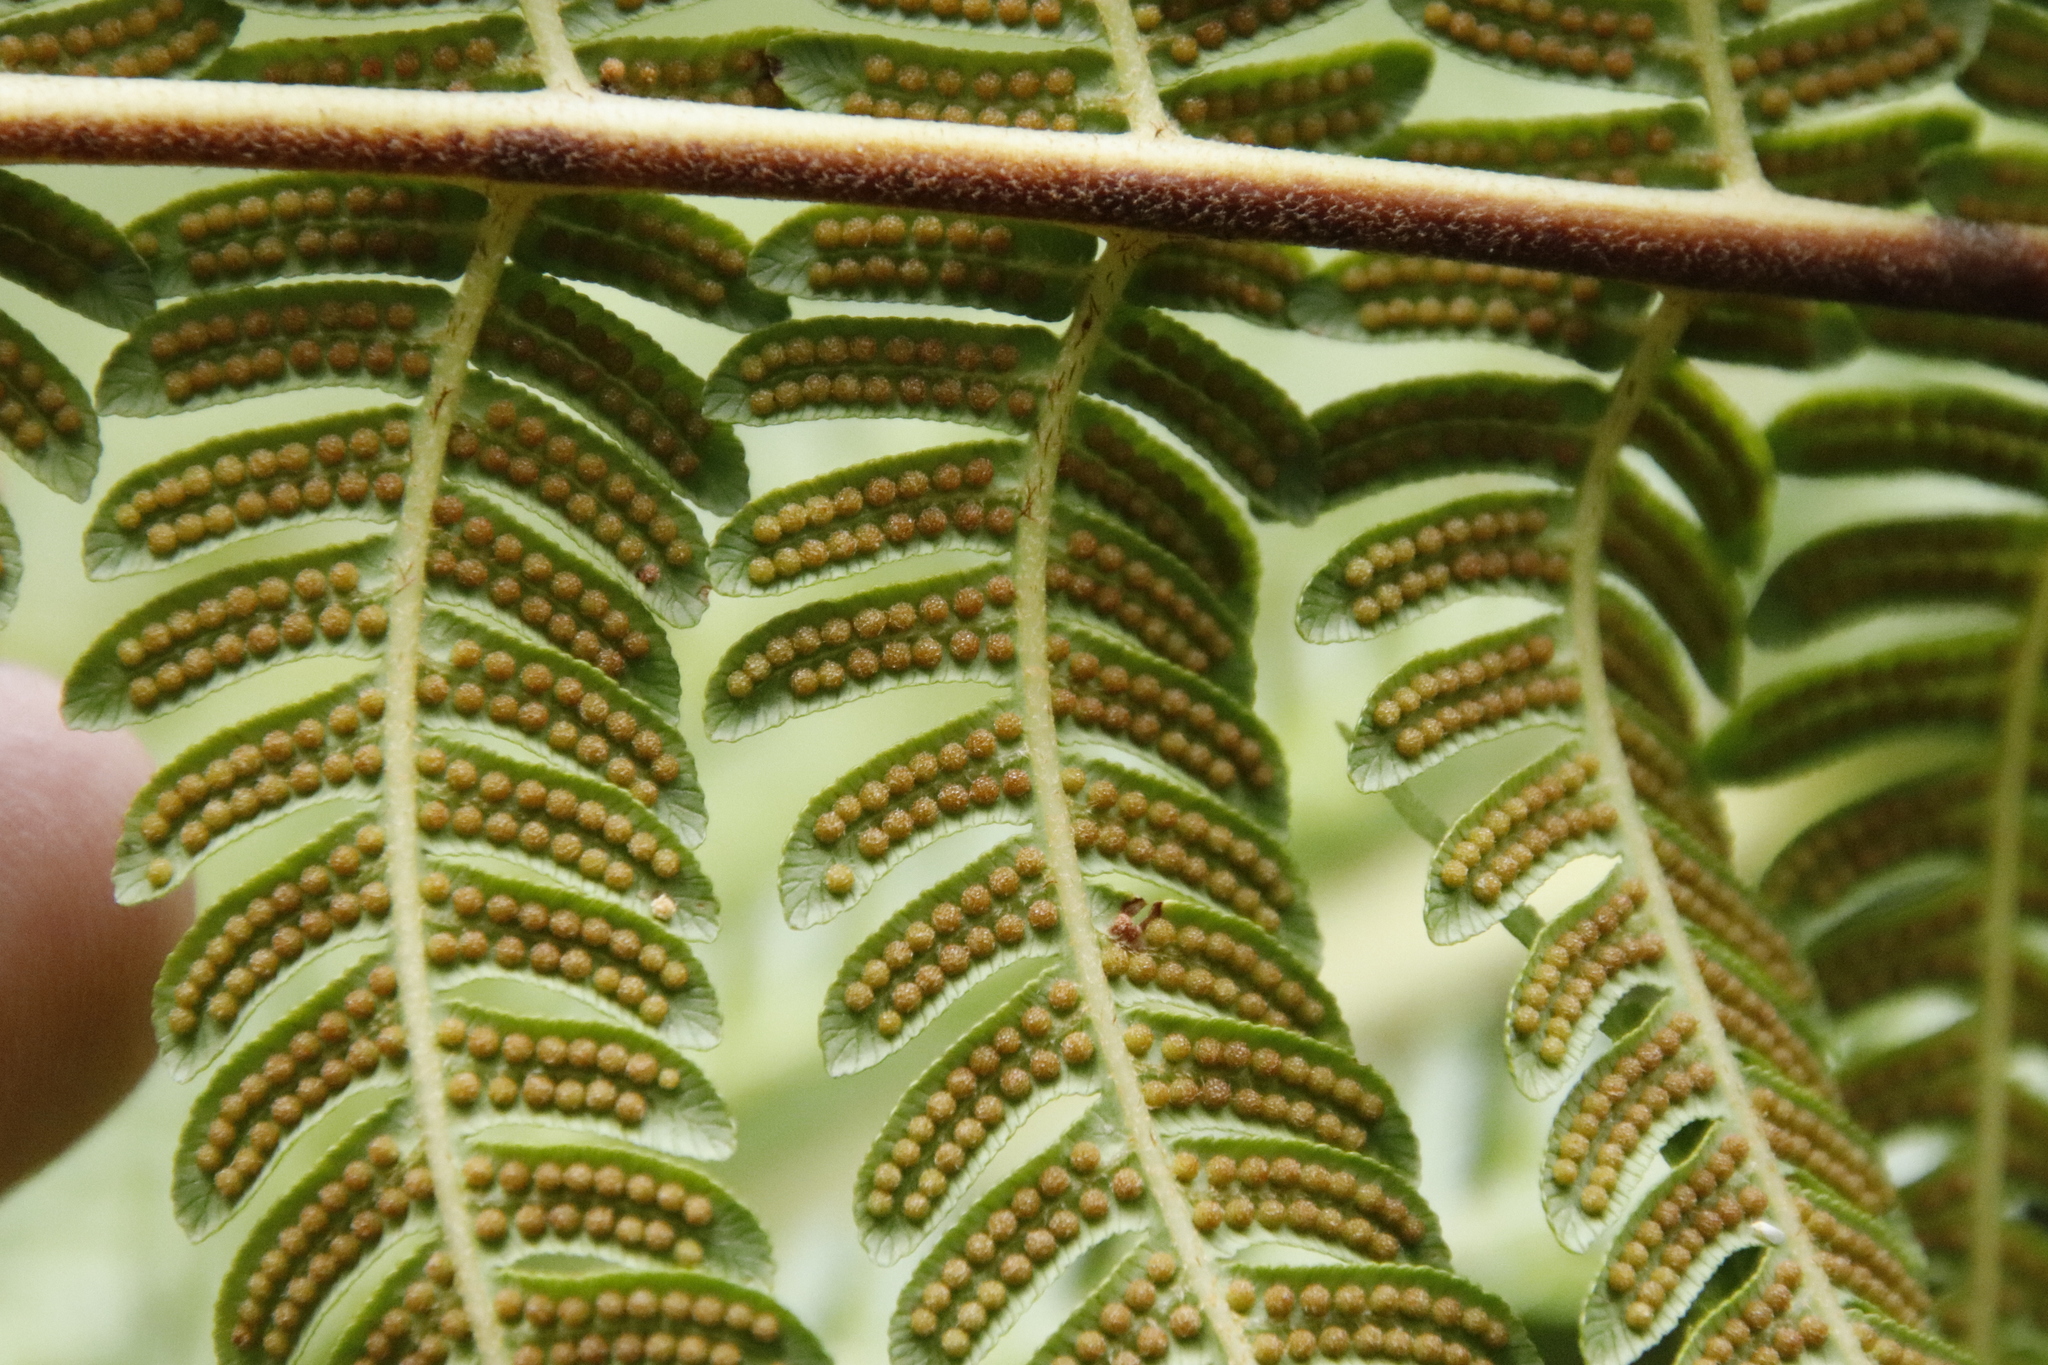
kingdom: Plantae
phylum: Tracheophyta
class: Polypodiopsida
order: Cyatheales
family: Cyatheaceae
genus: Sphaeropteris
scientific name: Sphaeropteris cooperi
